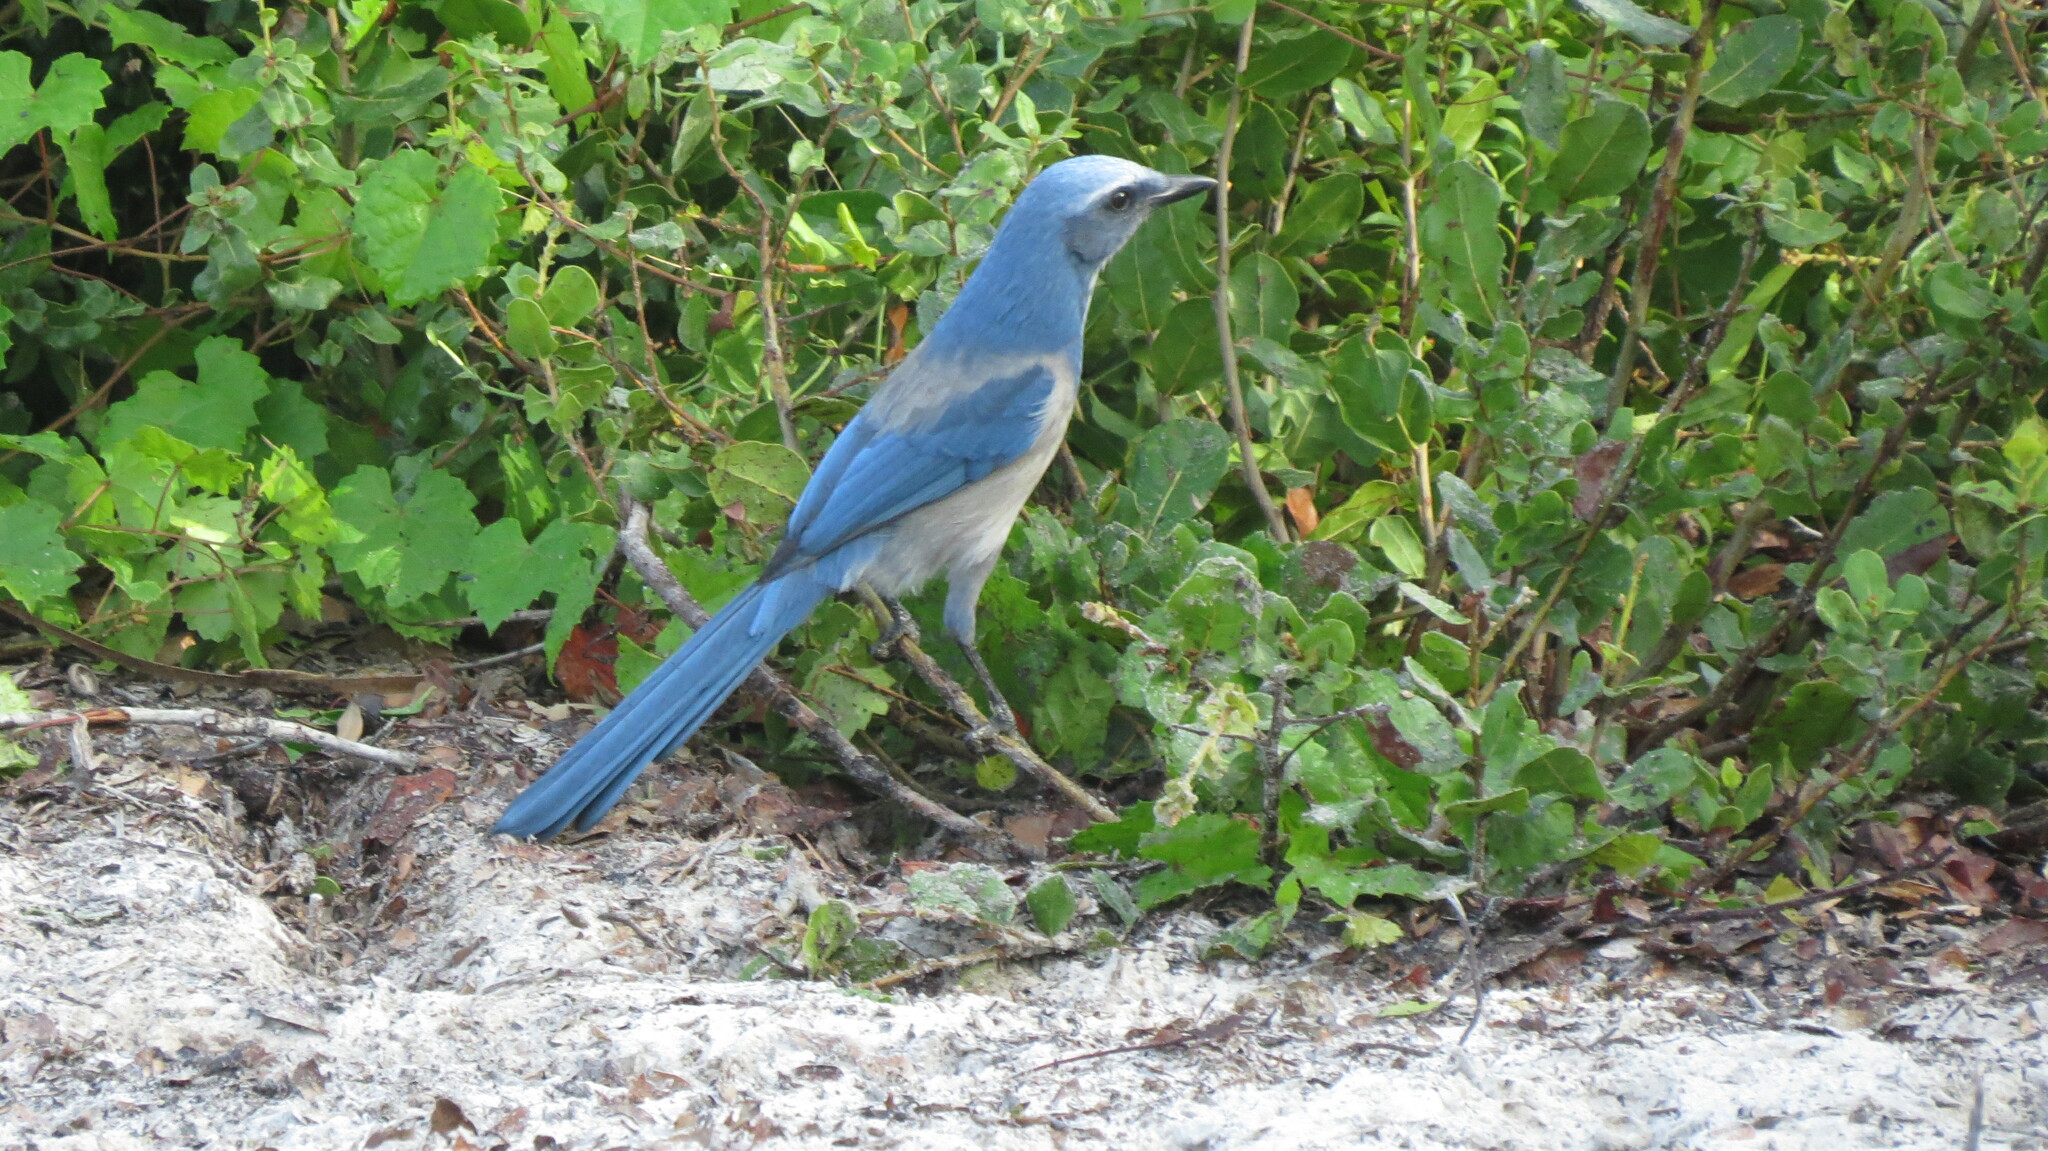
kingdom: Animalia
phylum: Chordata
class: Aves
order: Passeriformes
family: Corvidae
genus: Aphelocoma
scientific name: Aphelocoma coerulescens
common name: Florida scrub jay
